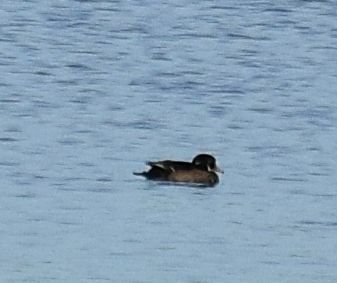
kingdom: Animalia
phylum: Chordata
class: Aves
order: Anseriformes
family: Anatidae
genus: Aix
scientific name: Aix sponsa
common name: Wood duck
